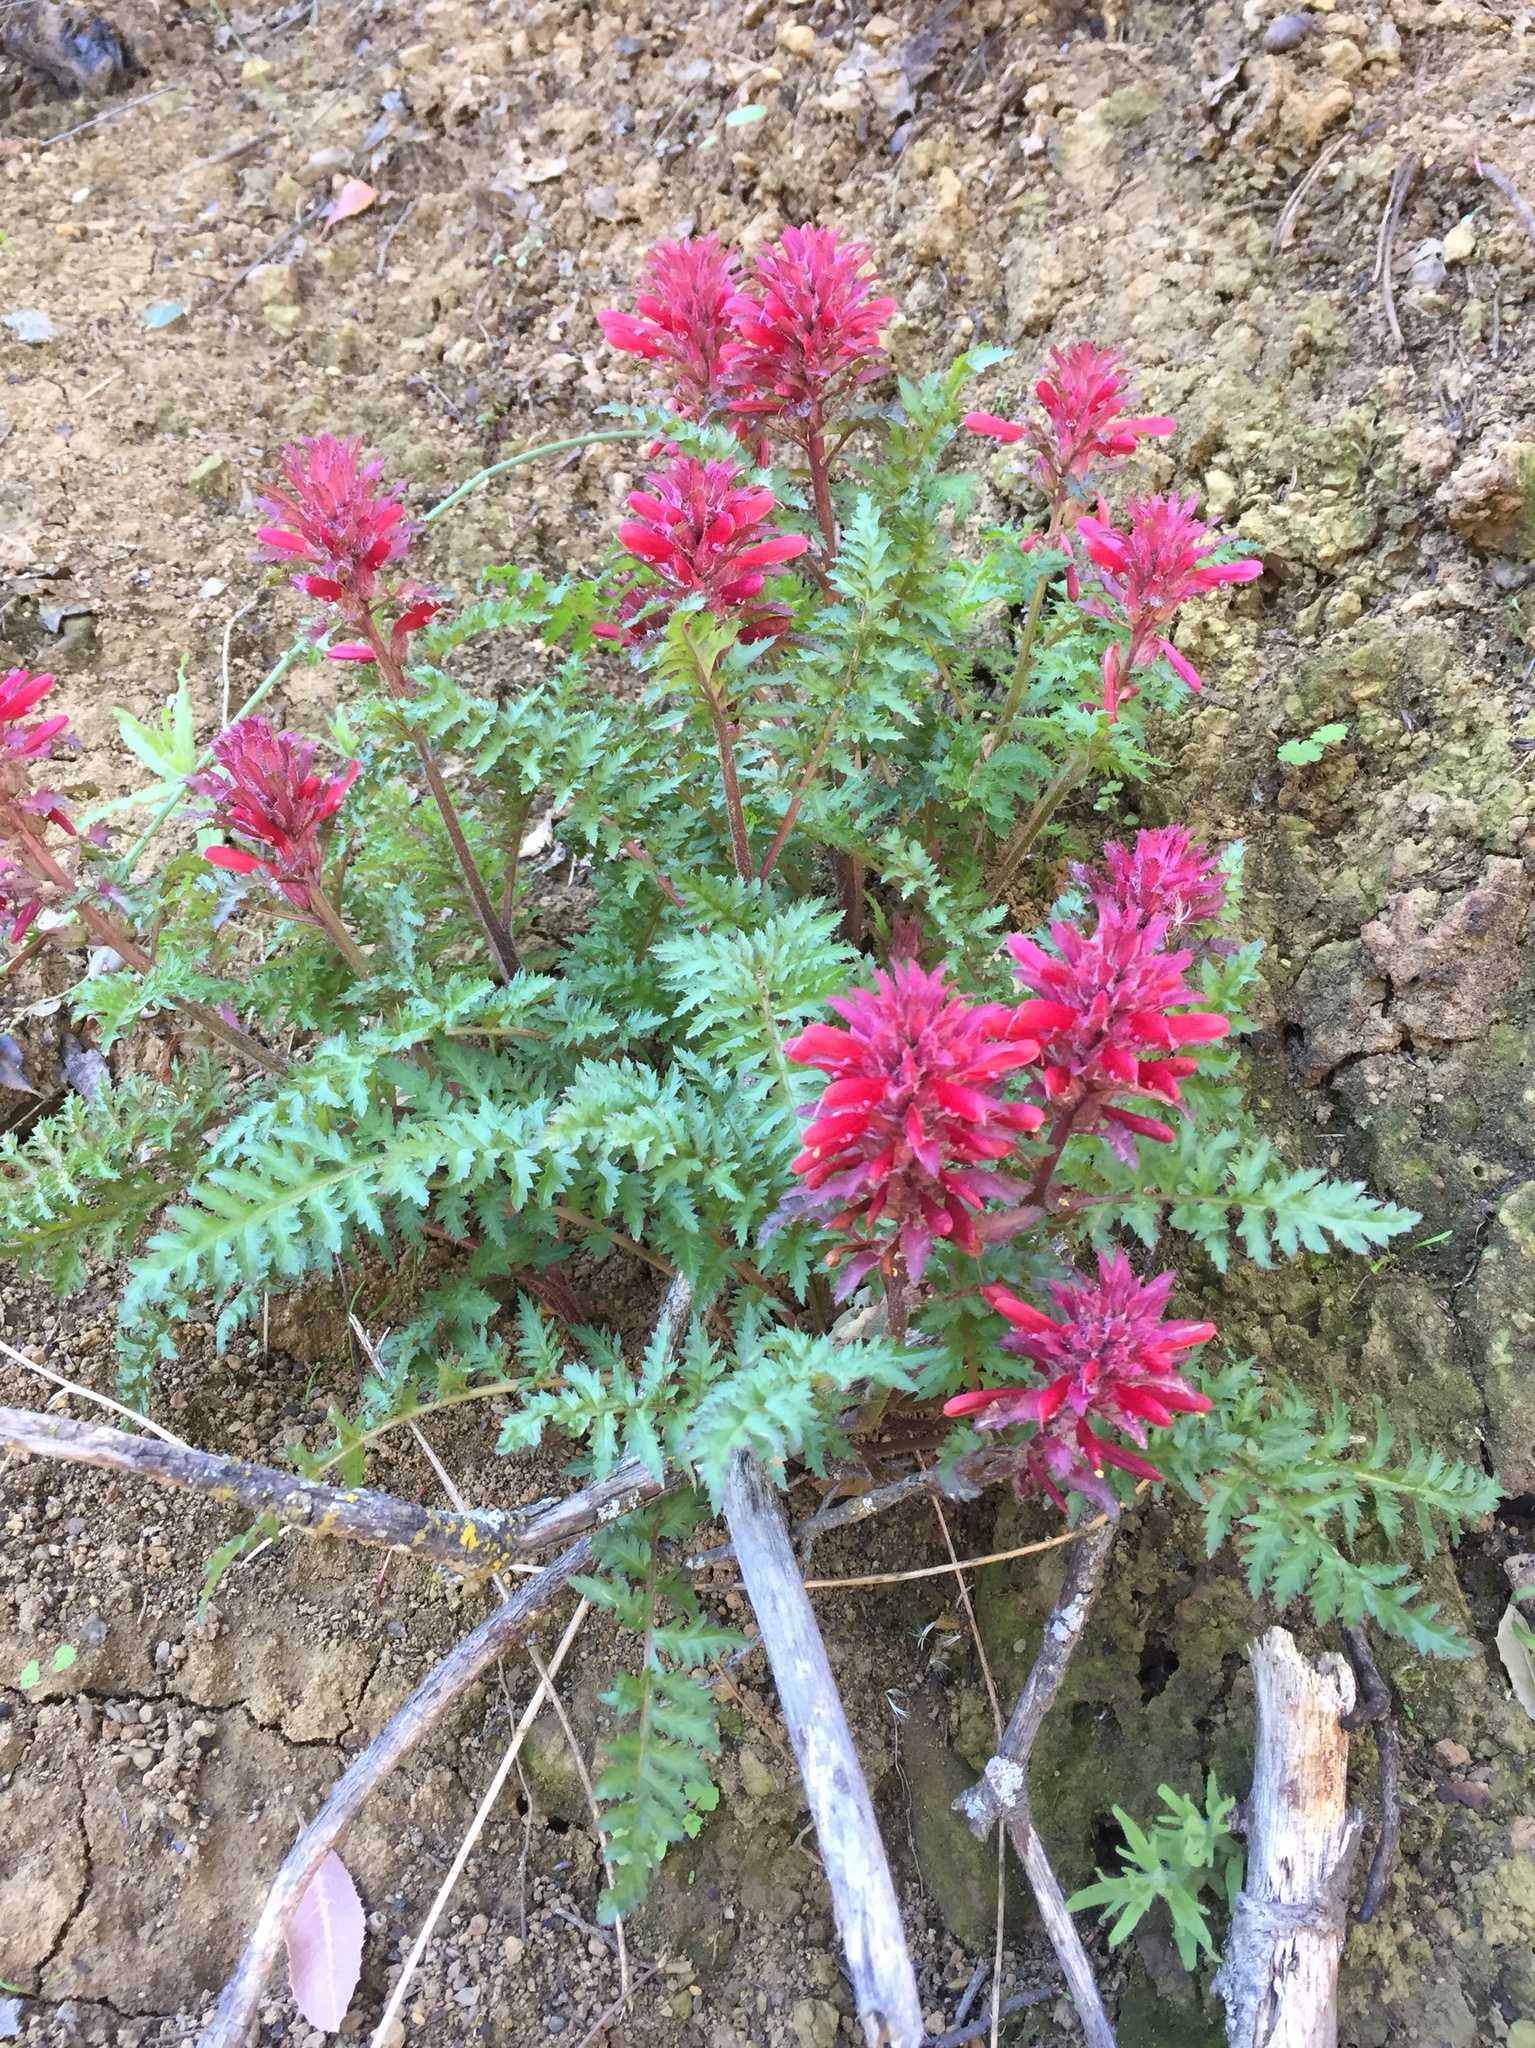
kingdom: Plantae
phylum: Tracheophyta
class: Magnoliopsida
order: Lamiales
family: Orobanchaceae
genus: Pedicularis
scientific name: Pedicularis densiflora
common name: Indian warrior
